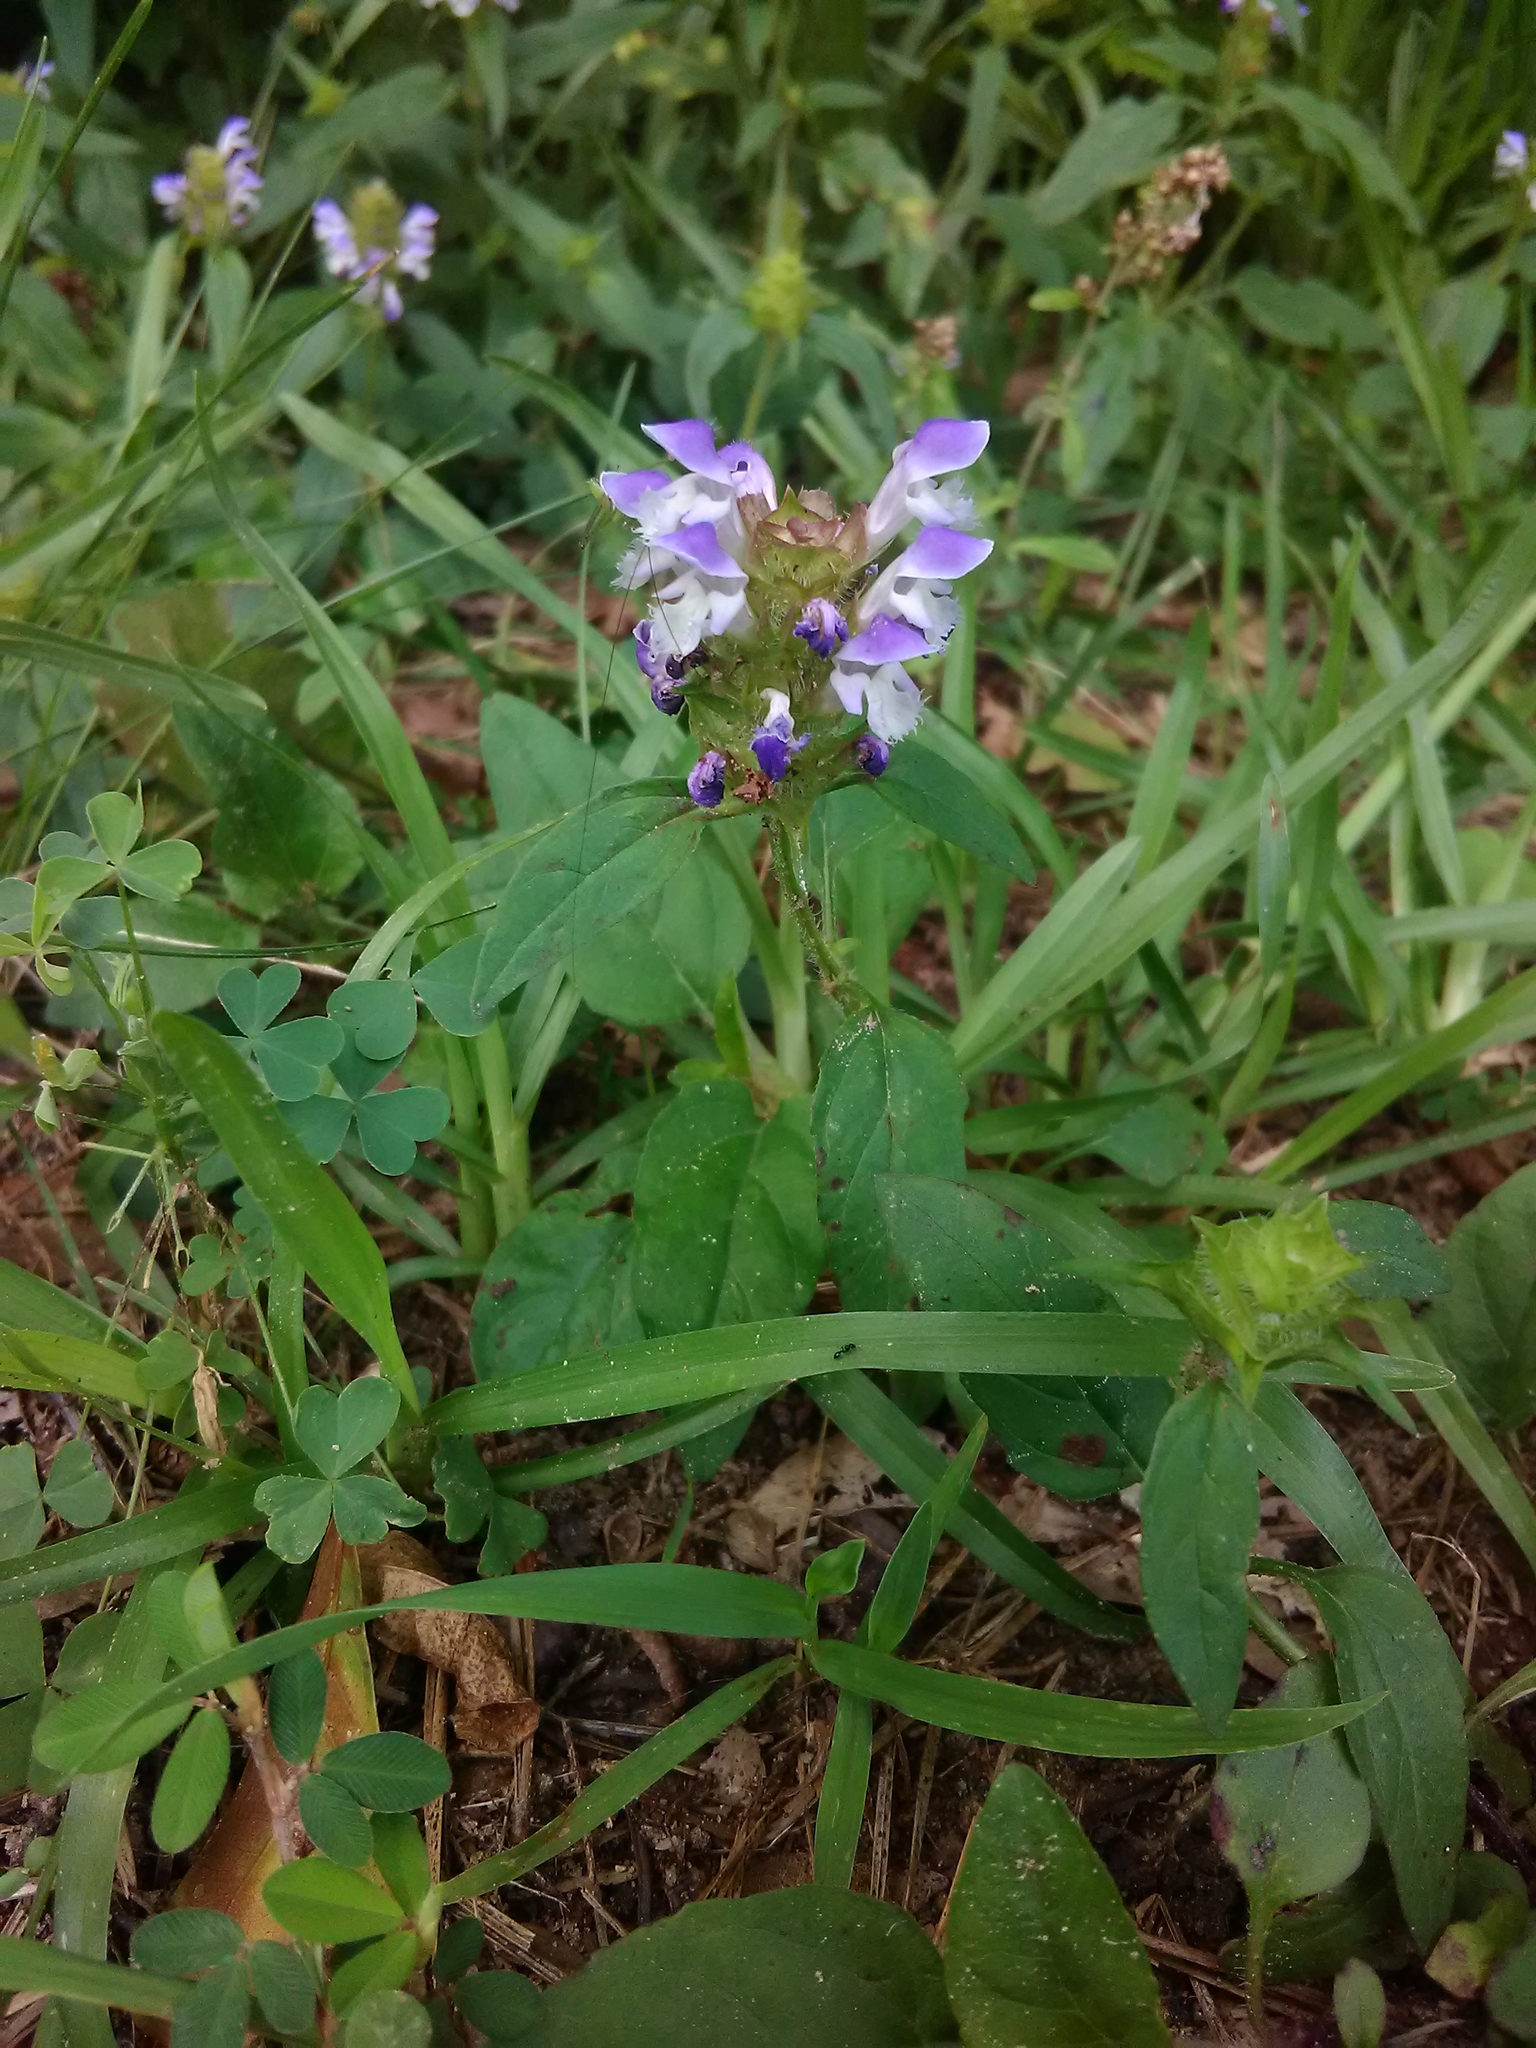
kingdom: Plantae
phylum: Tracheophyta
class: Magnoliopsida
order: Lamiales
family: Lamiaceae
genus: Prunella
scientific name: Prunella vulgaris
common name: Heal-all
